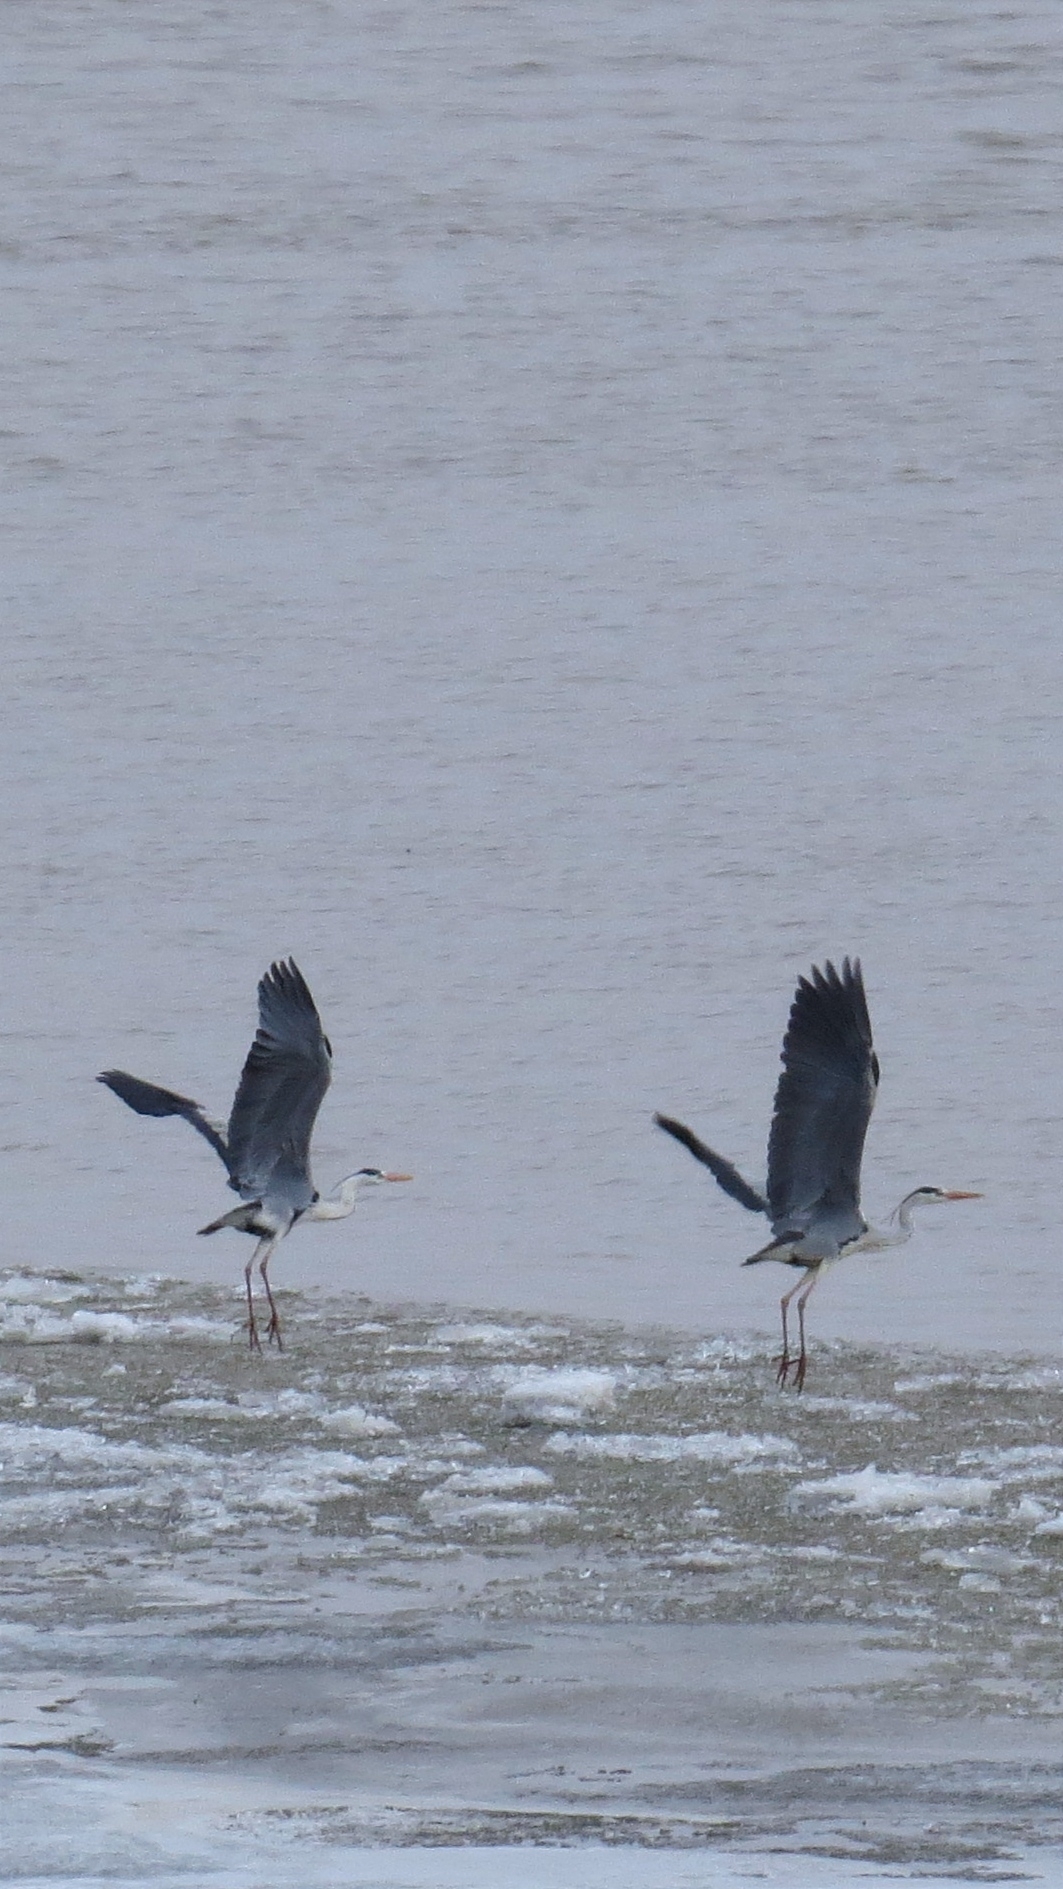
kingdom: Animalia
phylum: Chordata
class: Aves
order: Pelecaniformes
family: Ardeidae
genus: Ardea
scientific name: Ardea cinerea
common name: Grey heron
